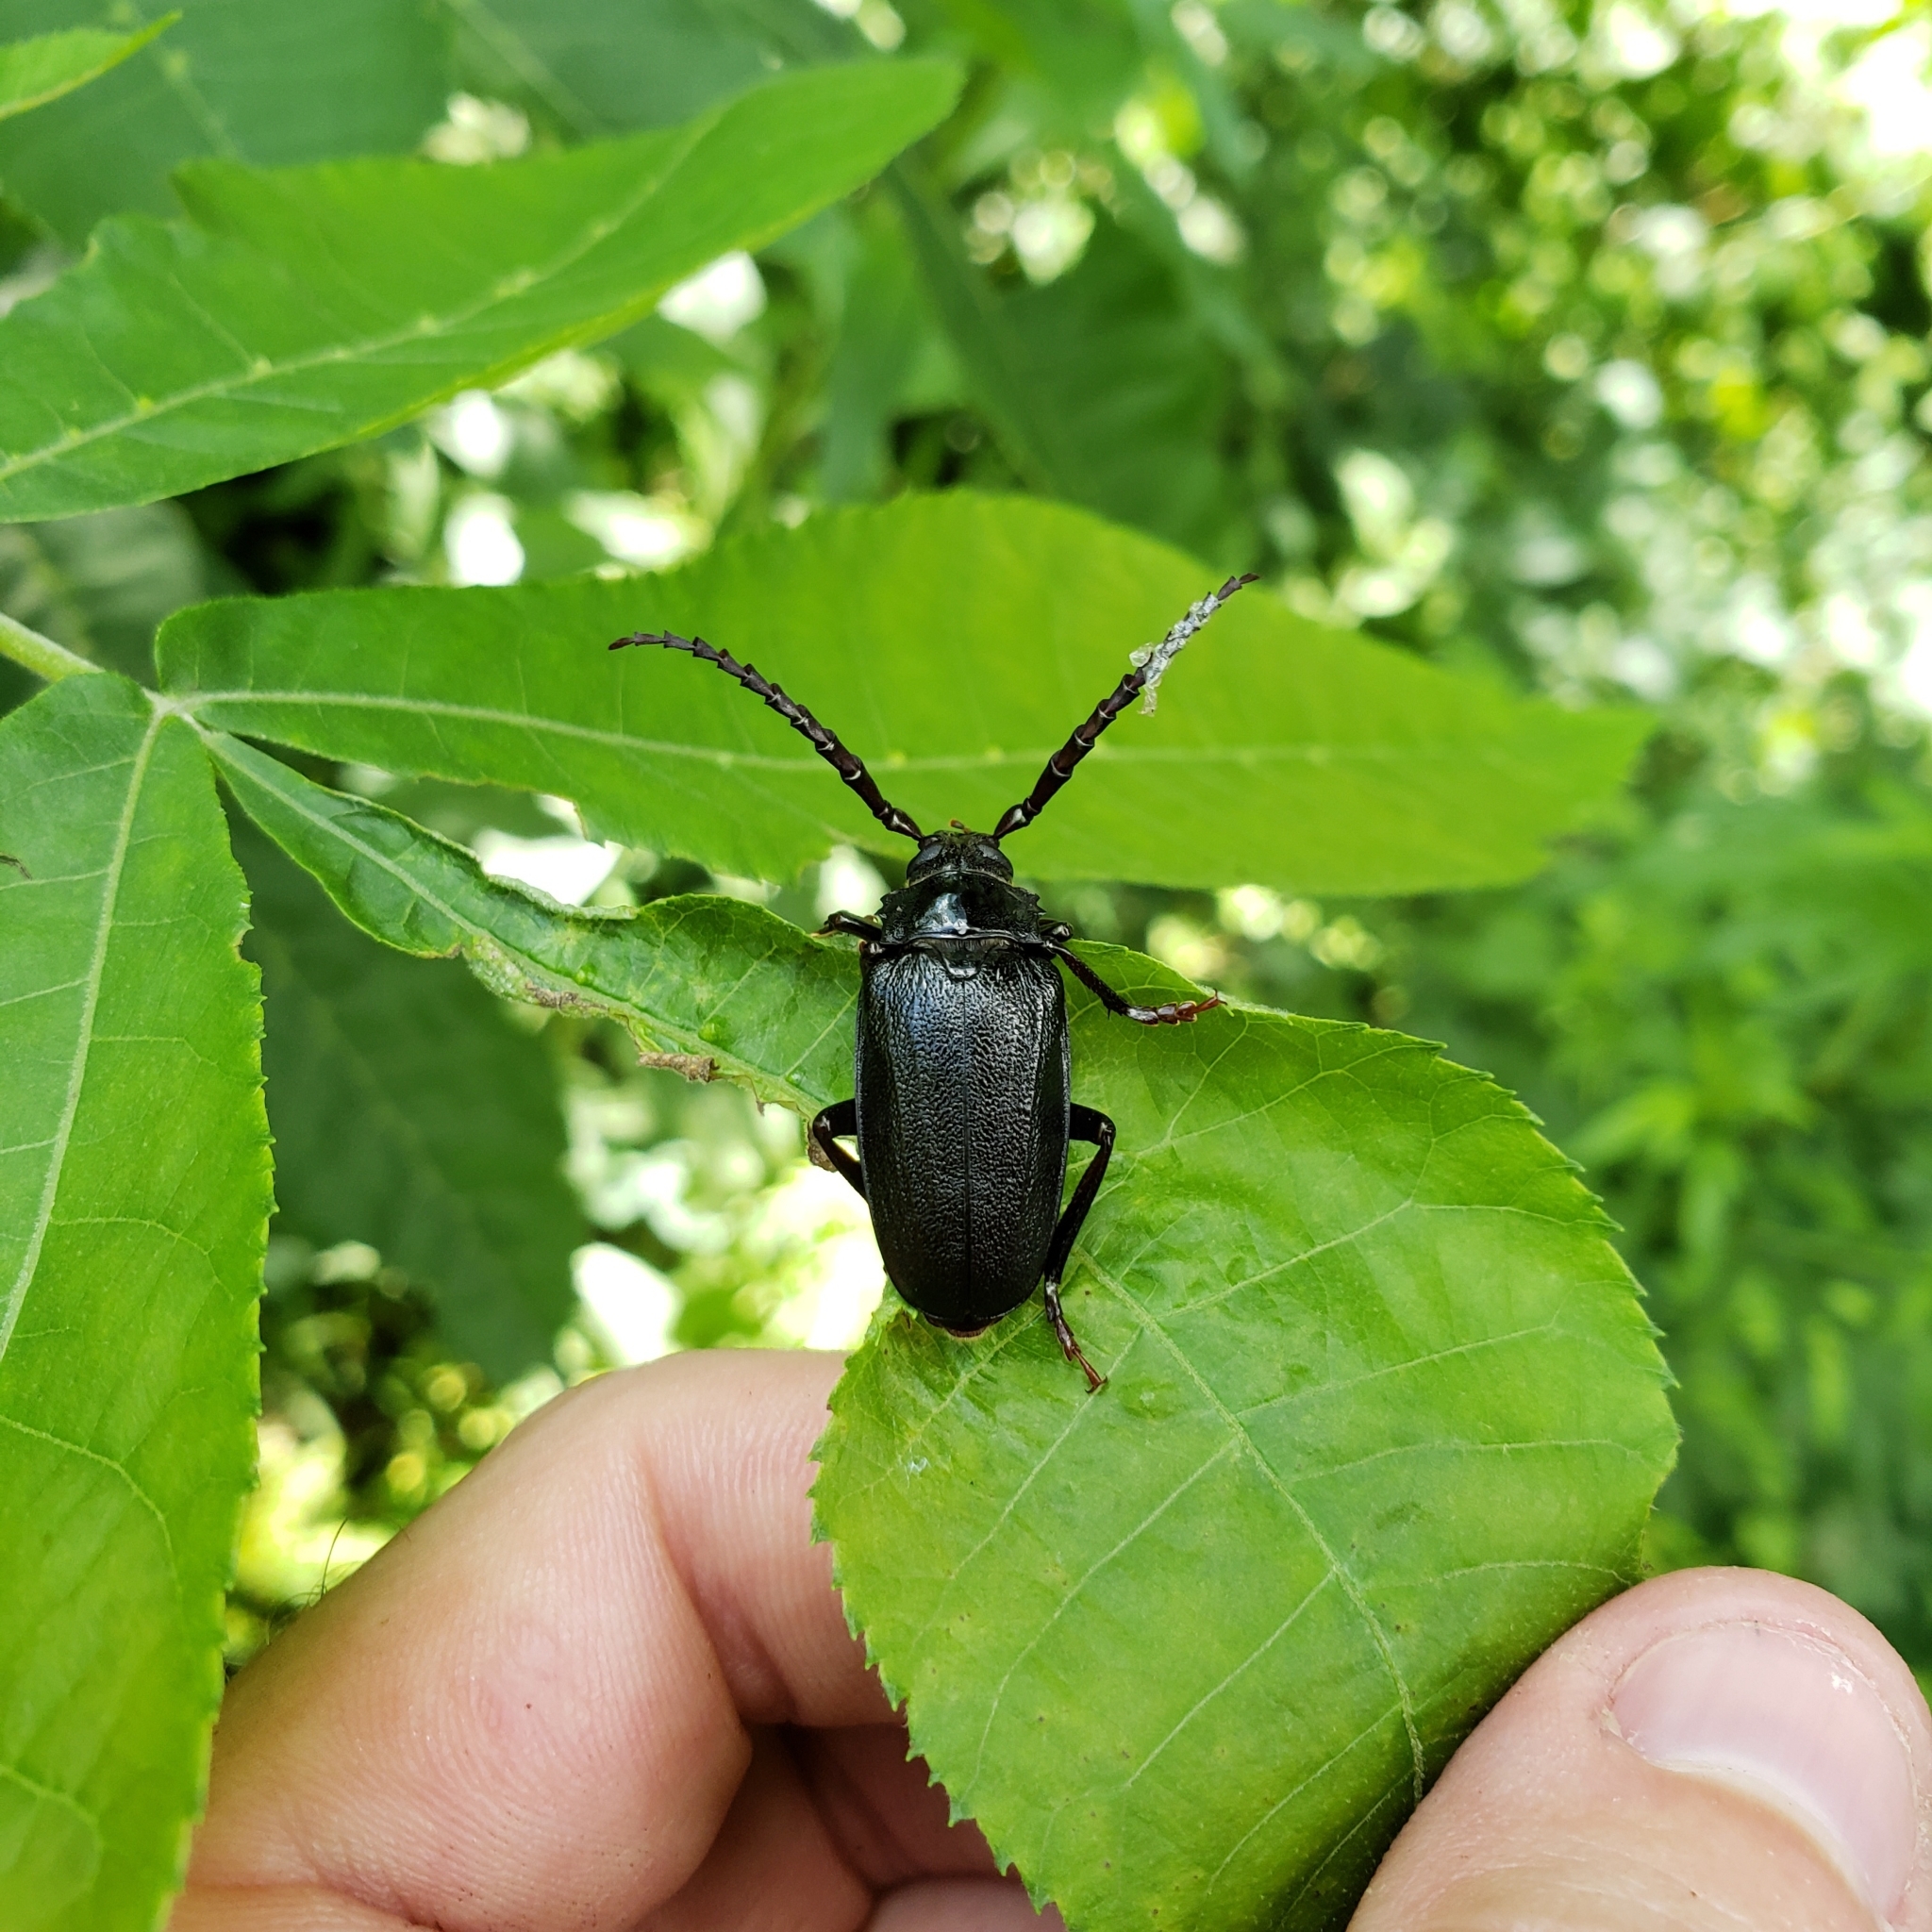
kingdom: Animalia
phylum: Arthropoda
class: Insecta
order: Coleoptera
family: Cerambycidae
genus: Prionus
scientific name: Prionus laticollis
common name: Broad necked prionus
